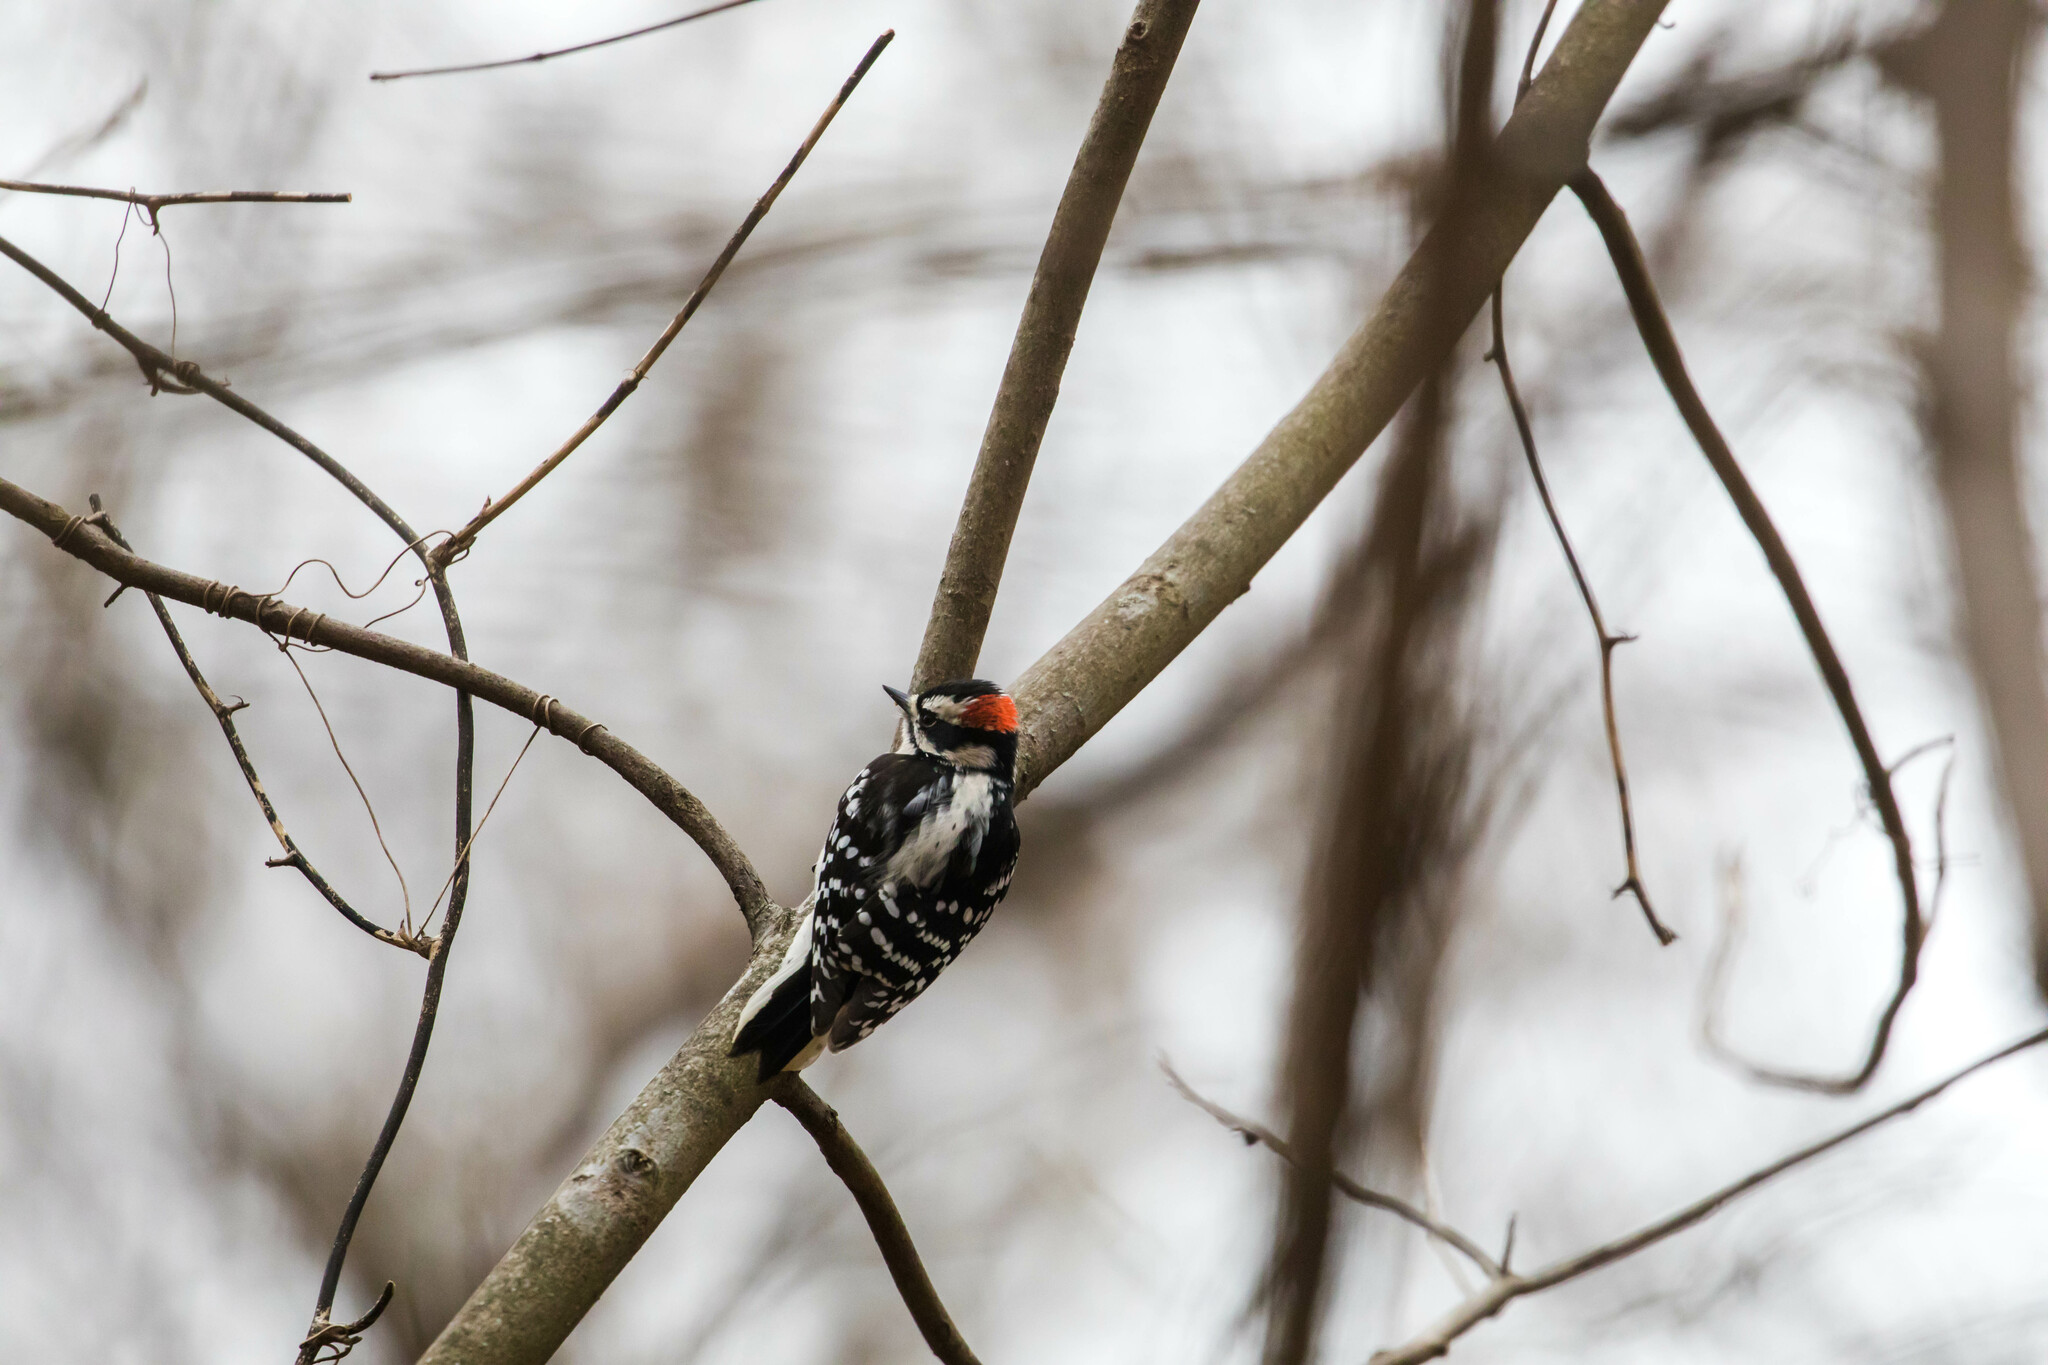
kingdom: Animalia
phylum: Chordata
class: Aves
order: Piciformes
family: Picidae
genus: Dryobates
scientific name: Dryobates pubescens
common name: Downy woodpecker
